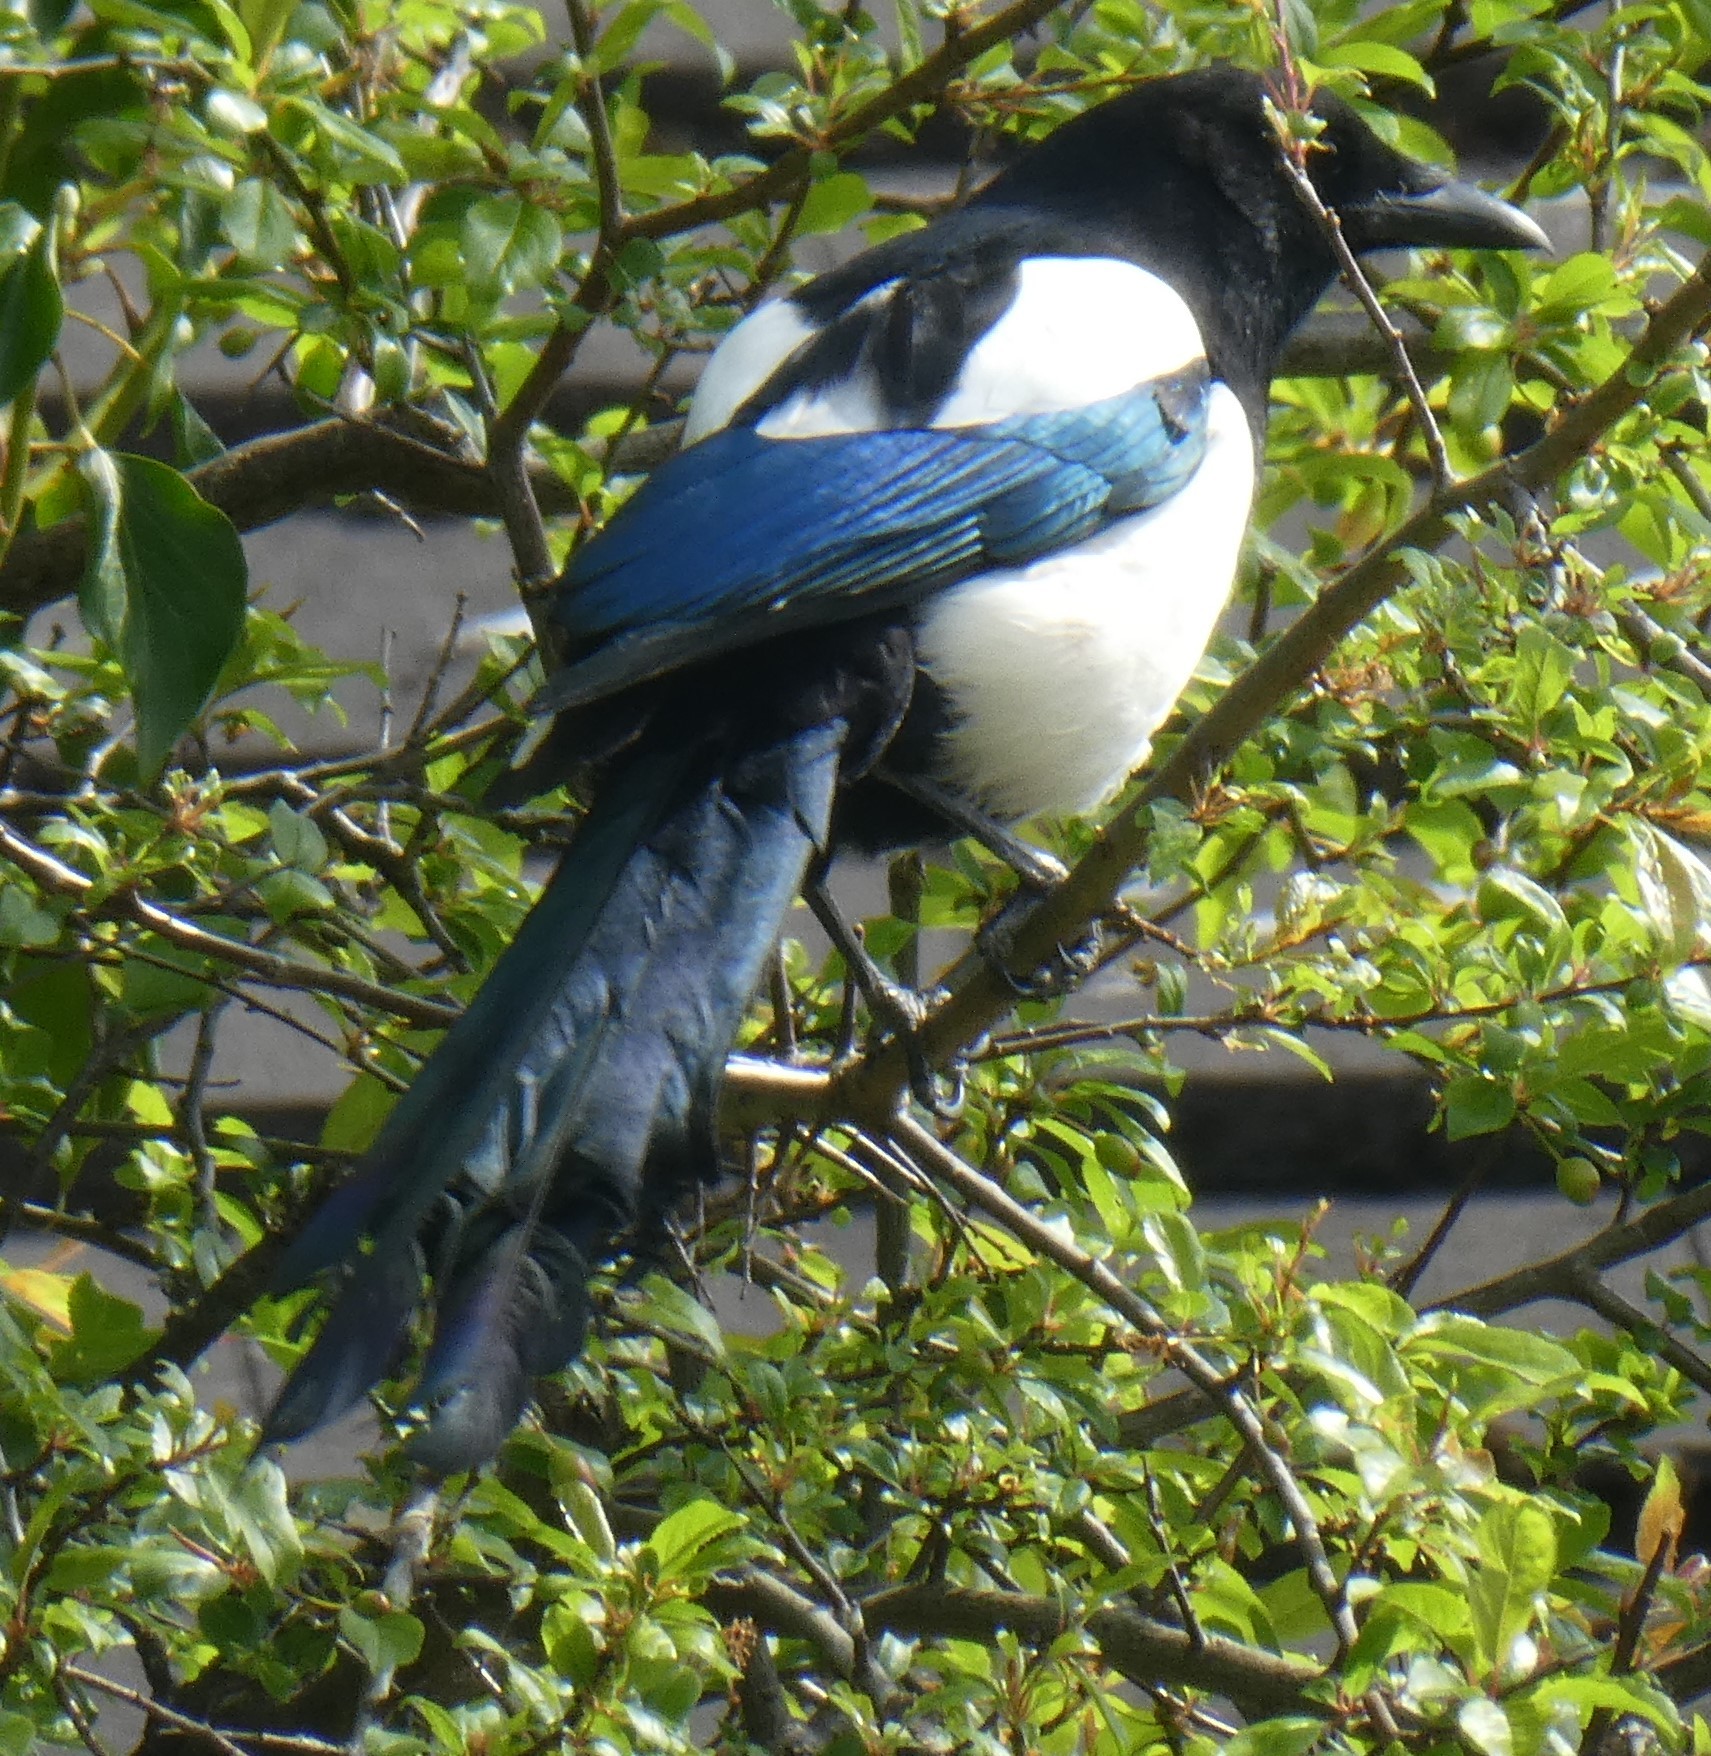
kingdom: Animalia
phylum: Chordata
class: Aves
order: Passeriformes
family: Corvidae
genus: Pica
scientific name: Pica pica
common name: Eurasian magpie
